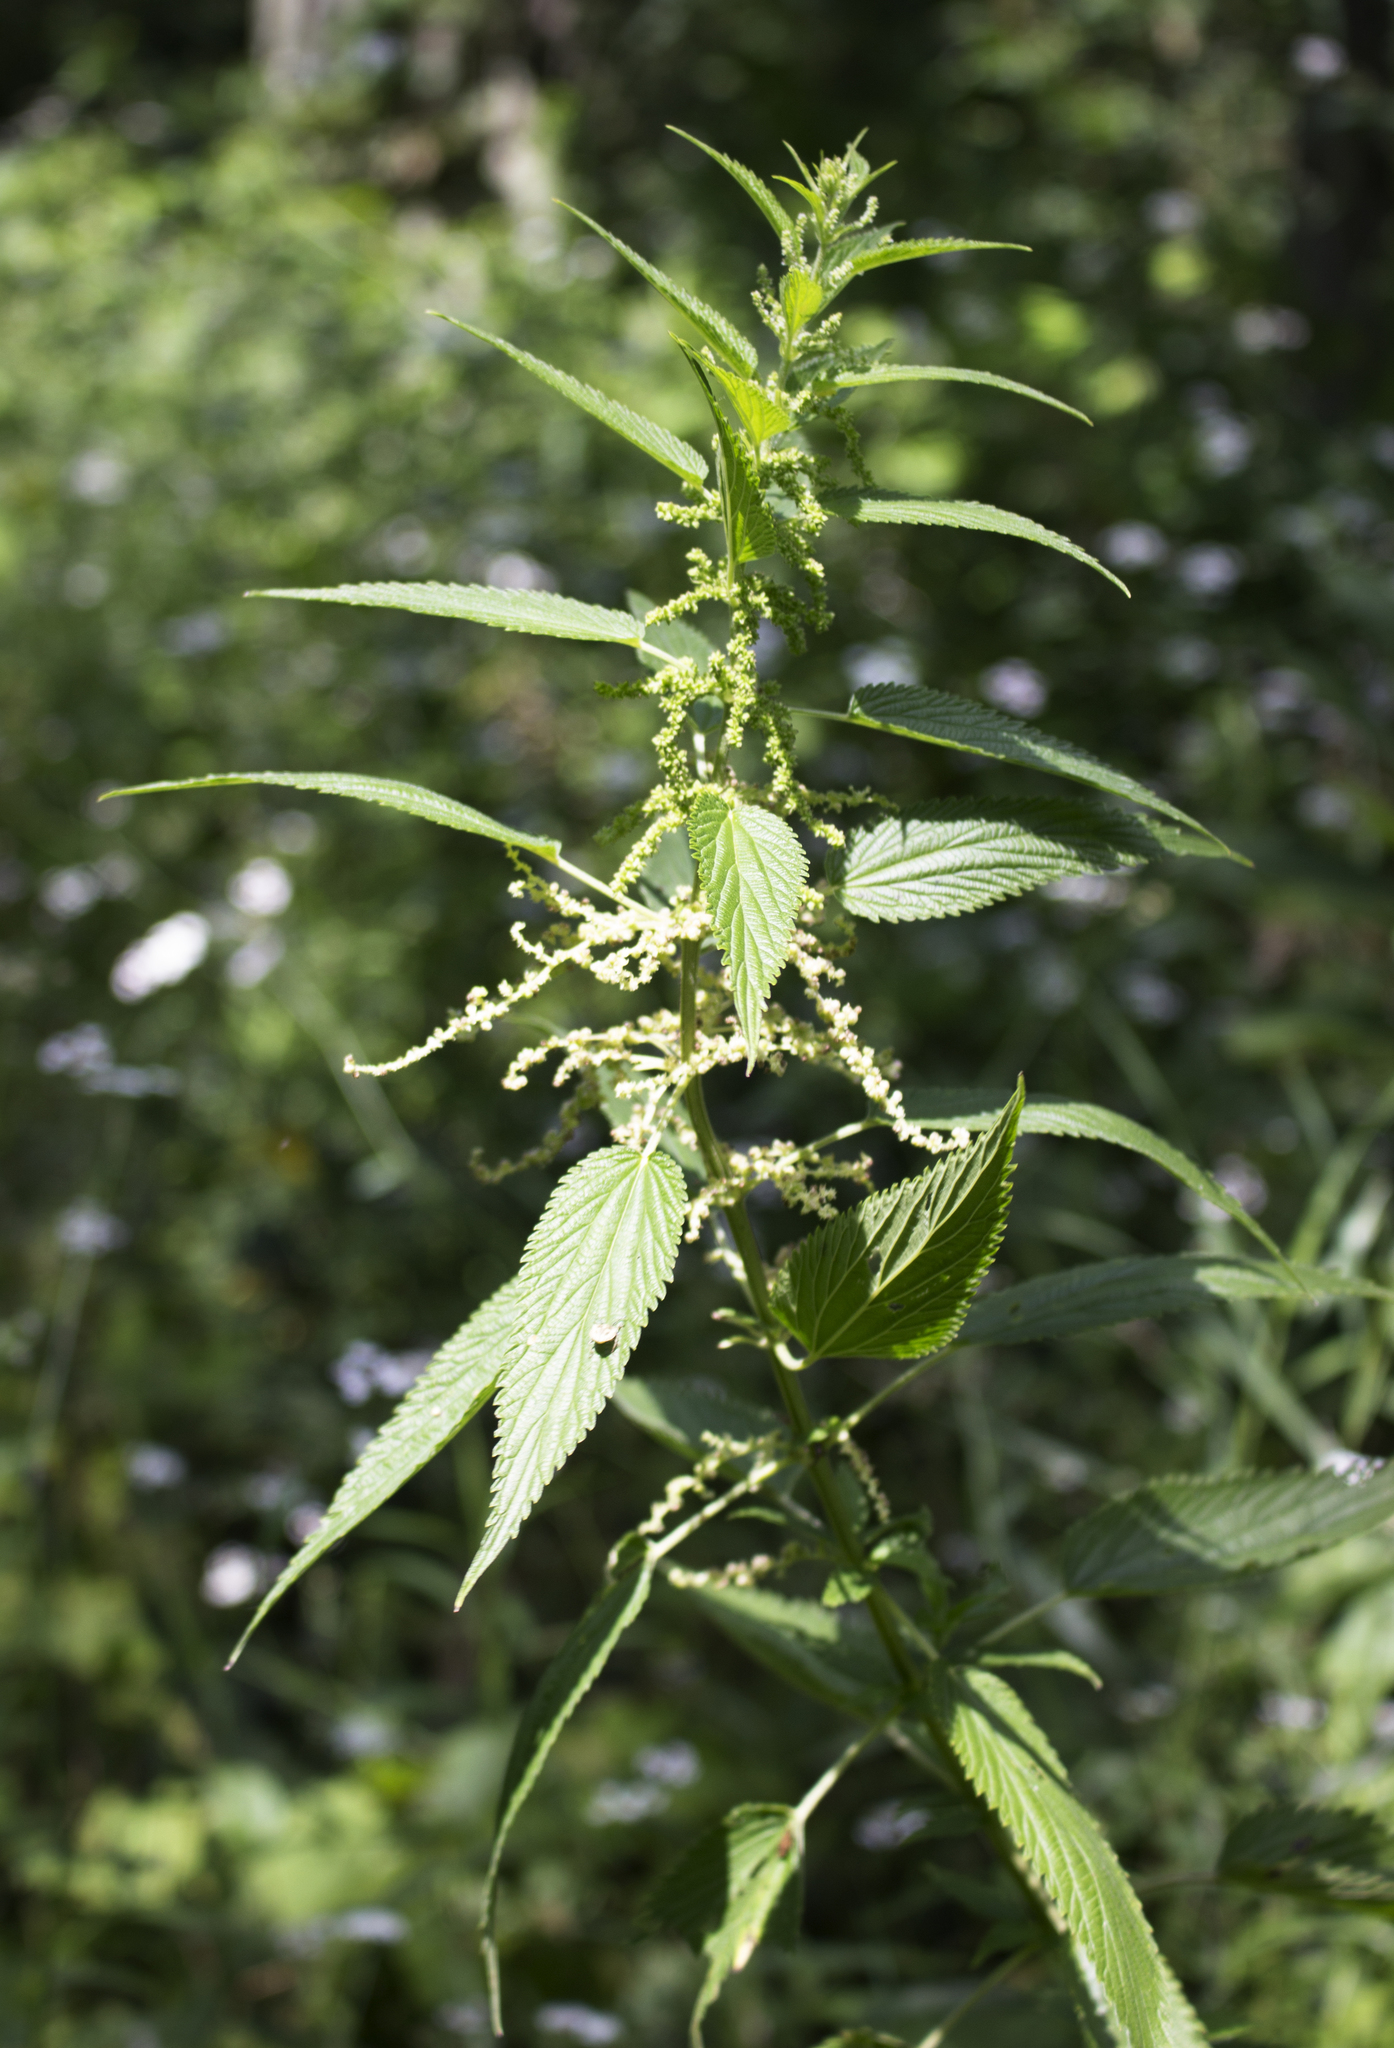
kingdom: Plantae
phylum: Tracheophyta
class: Magnoliopsida
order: Rosales
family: Urticaceae
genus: Urtica
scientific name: Urtica dioica
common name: Common nettle
